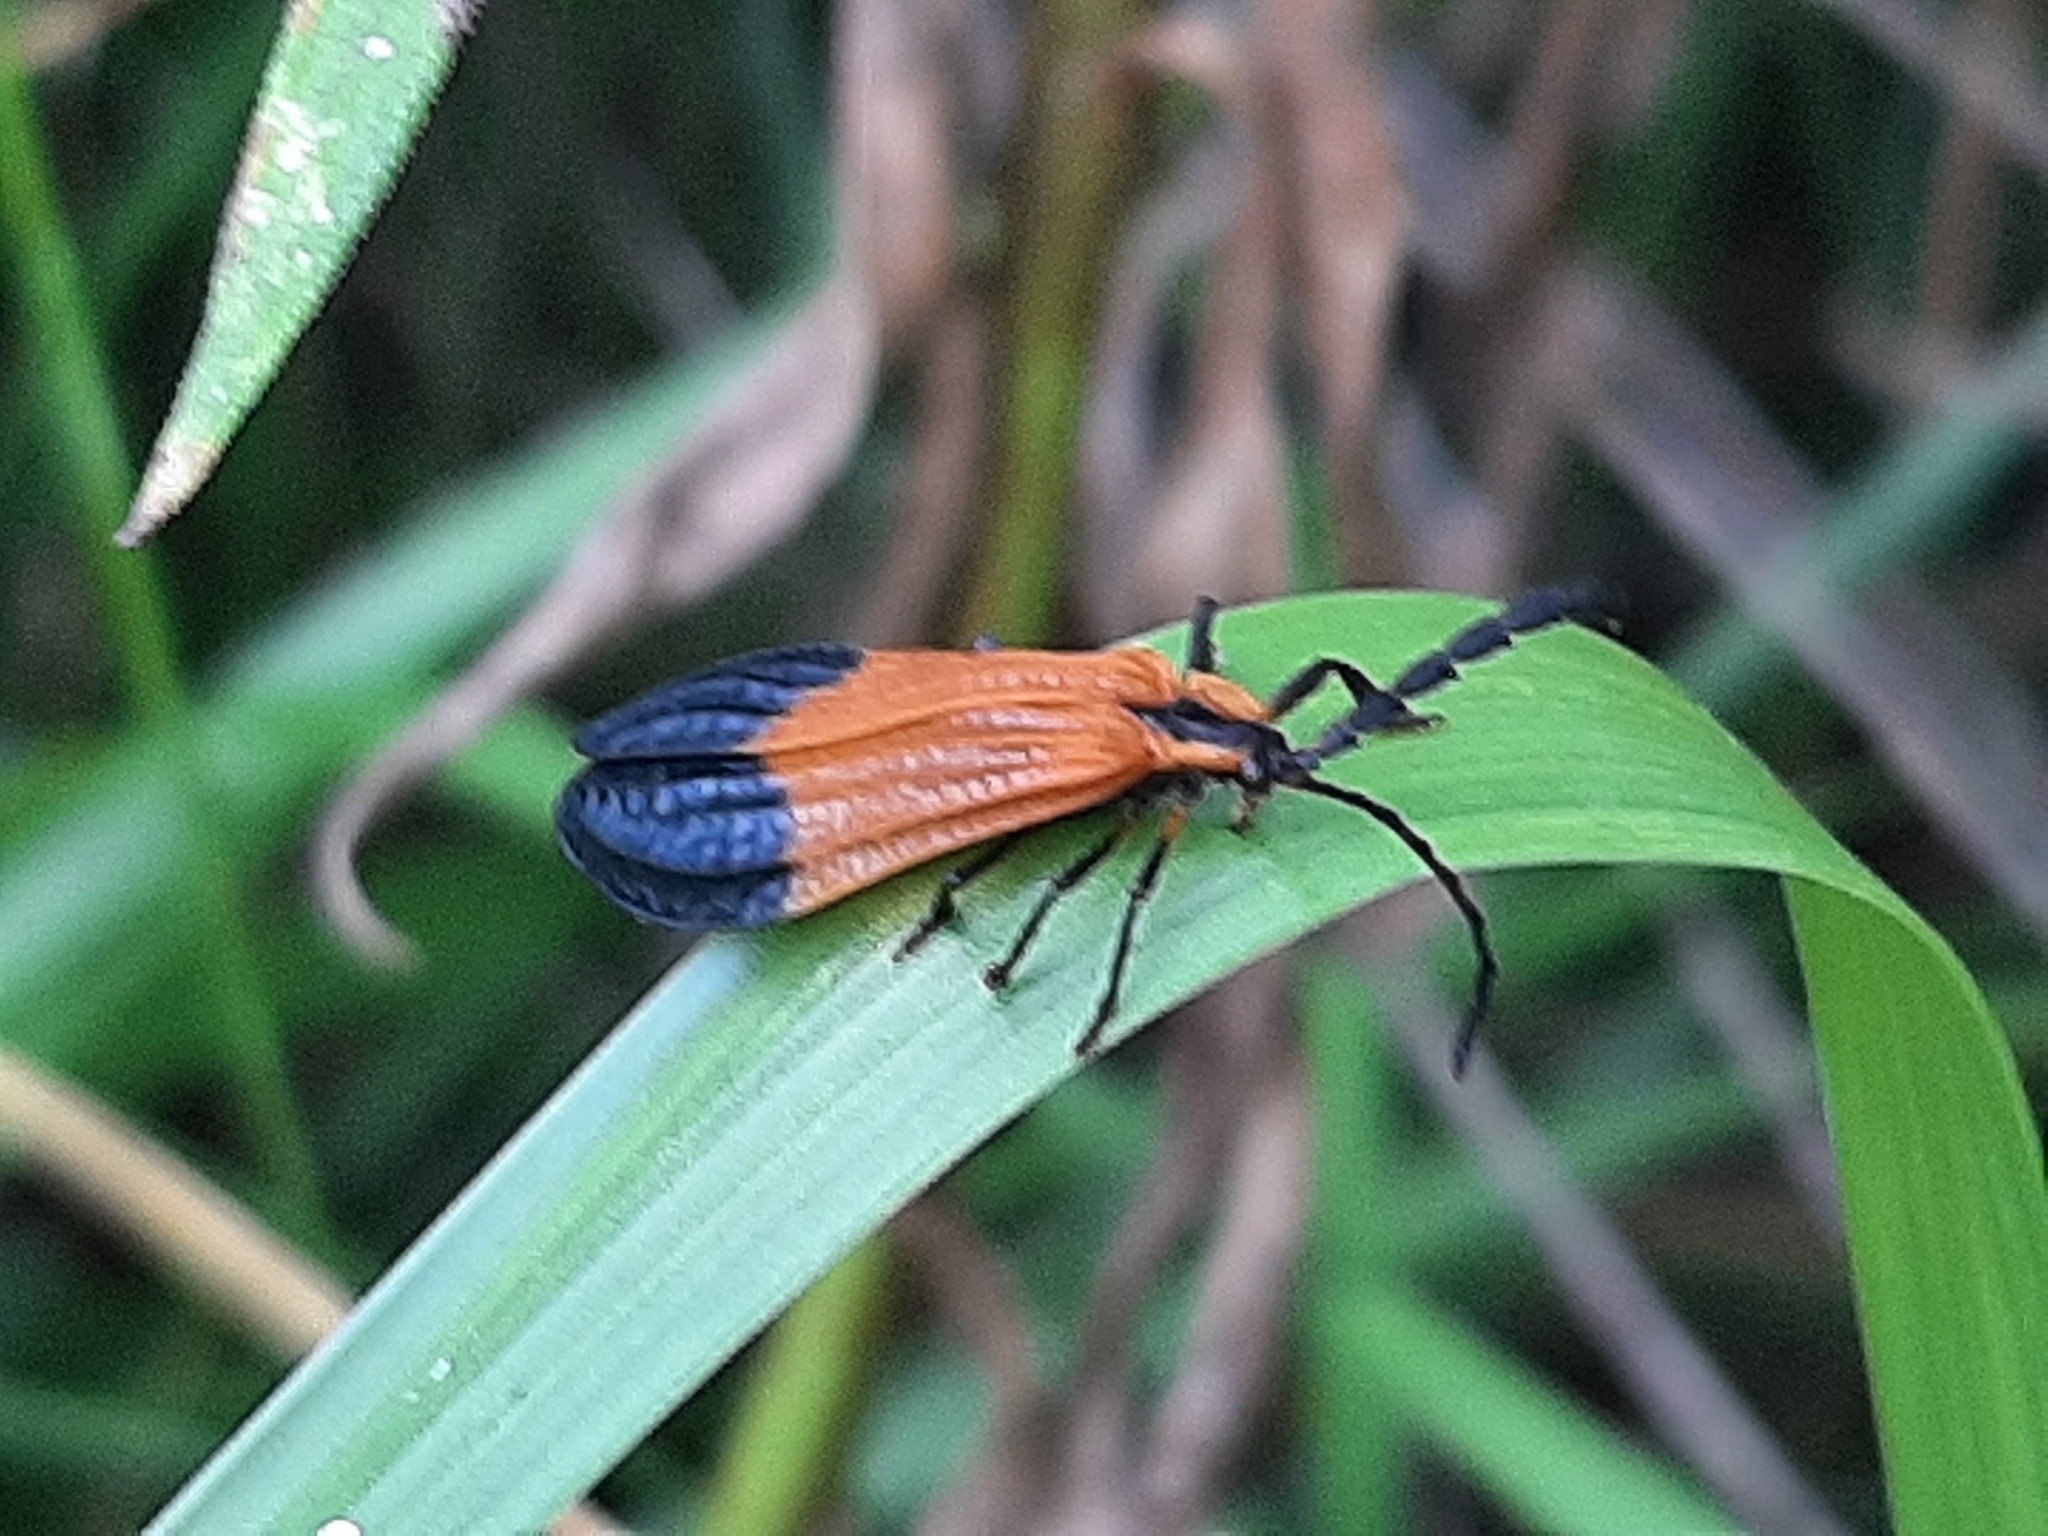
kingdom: Animalia
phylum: Arthropoda
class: Insecta
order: Coleoptera
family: Lycidae
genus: Calopteron
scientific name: Calopteron terminale
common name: End band net-winged beetle
